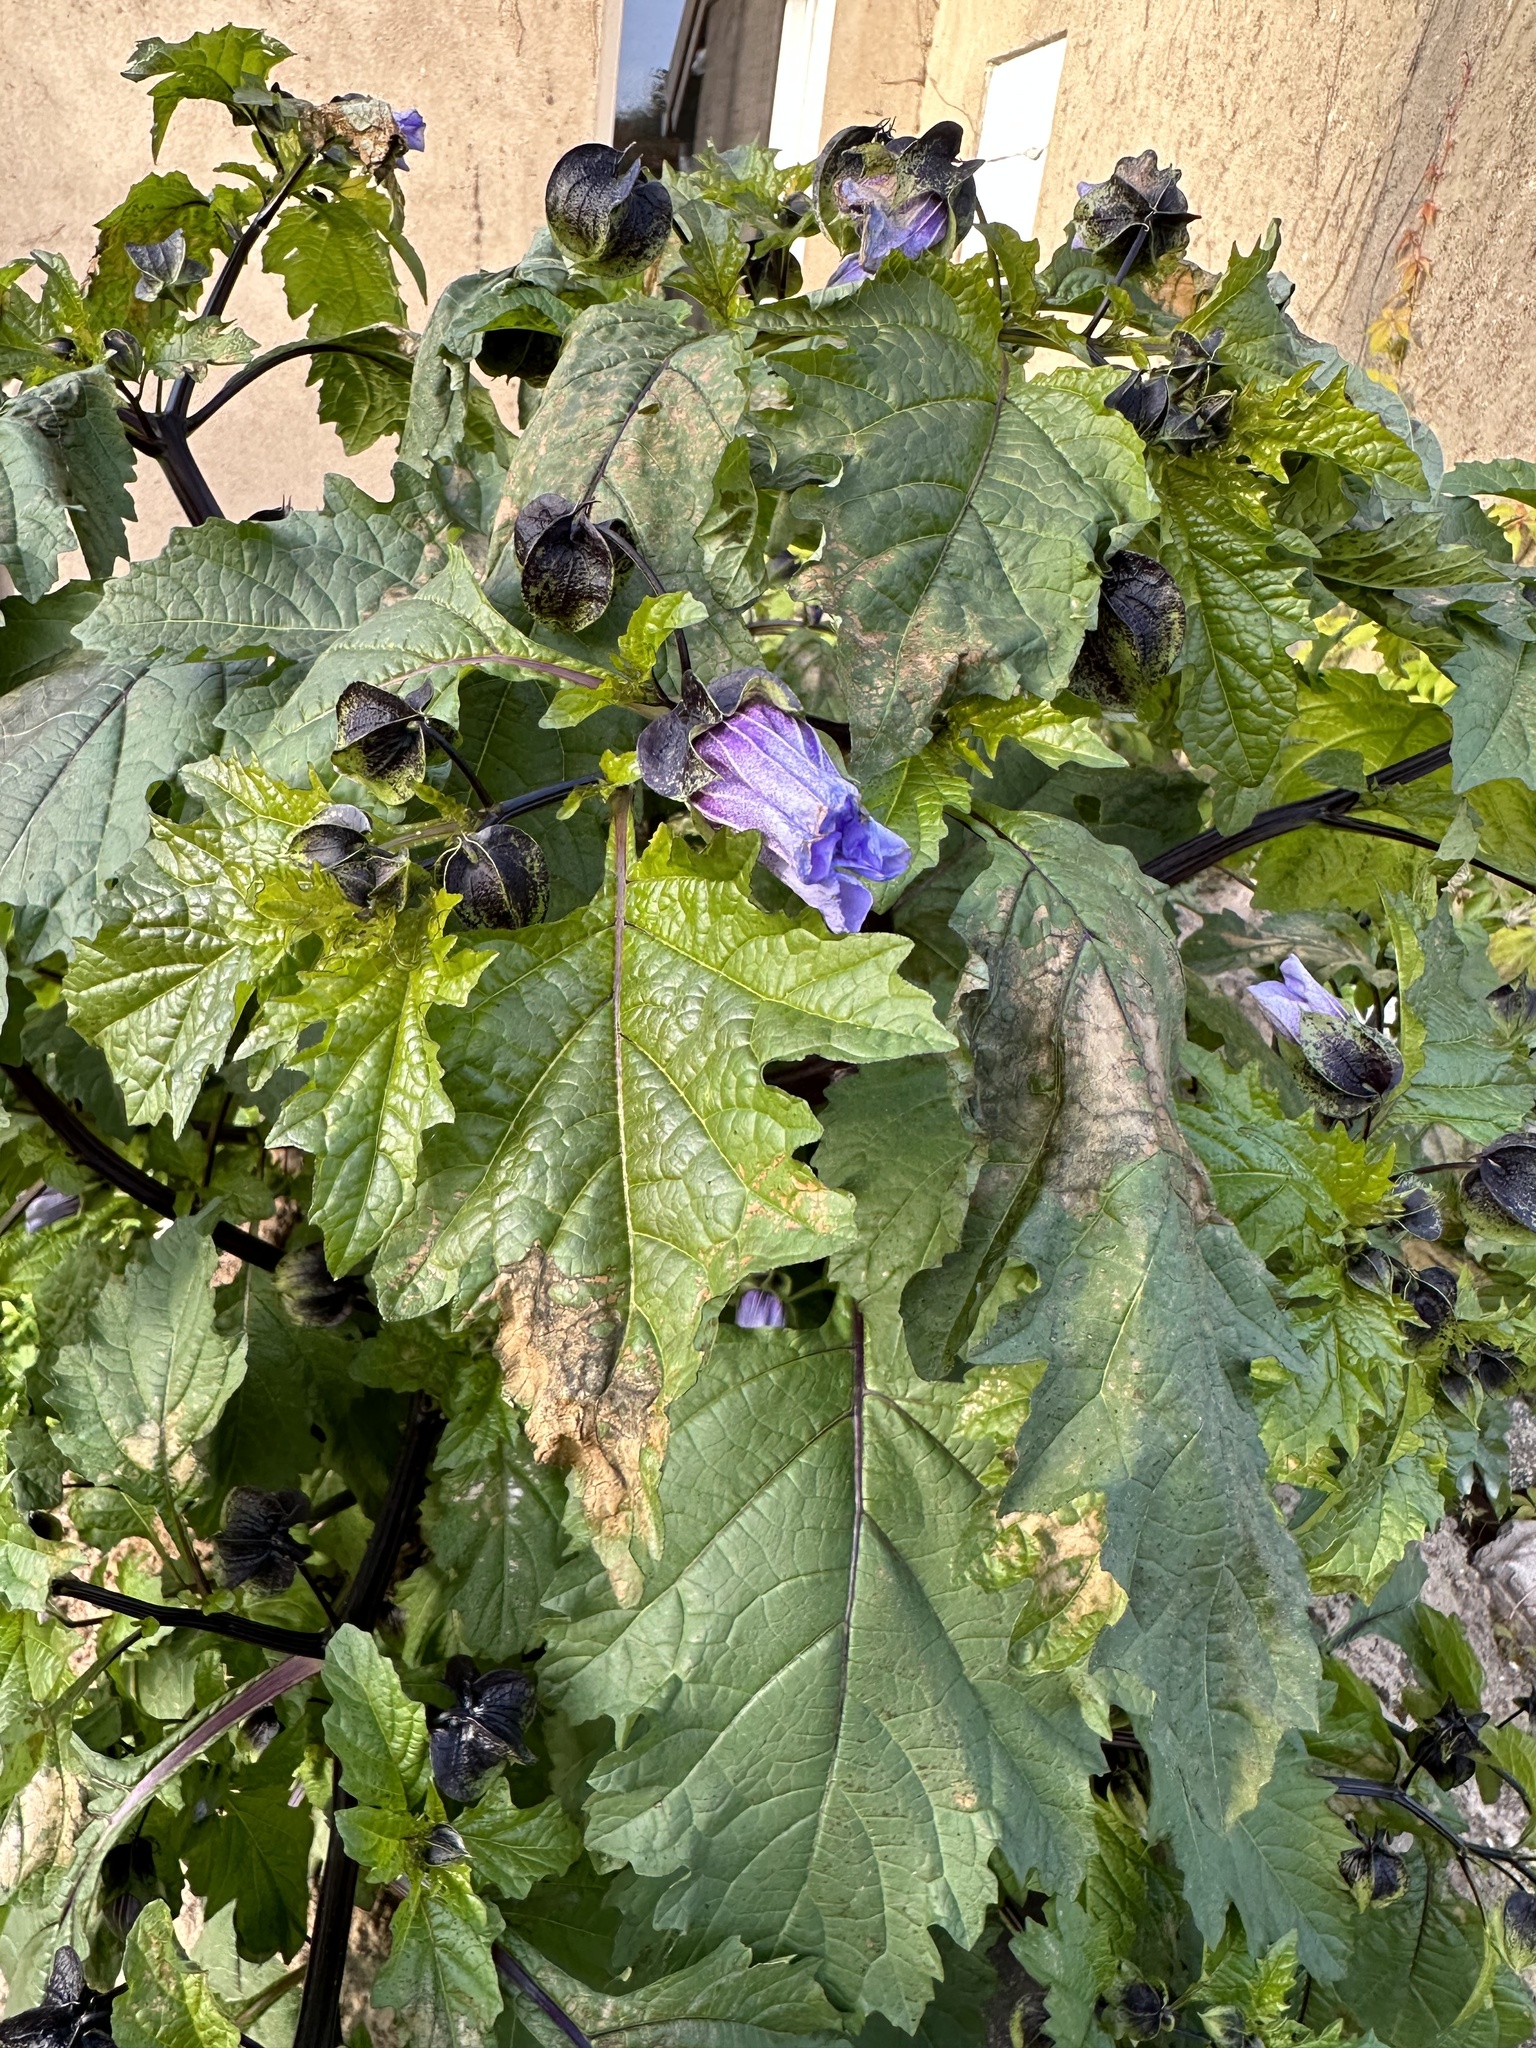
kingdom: Plantae
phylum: Tracheophyta
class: Magnoliopsida
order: Solanales
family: Solanaceae
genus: Nicandra
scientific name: Nicandra physalodes
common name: Apple-of-peru
